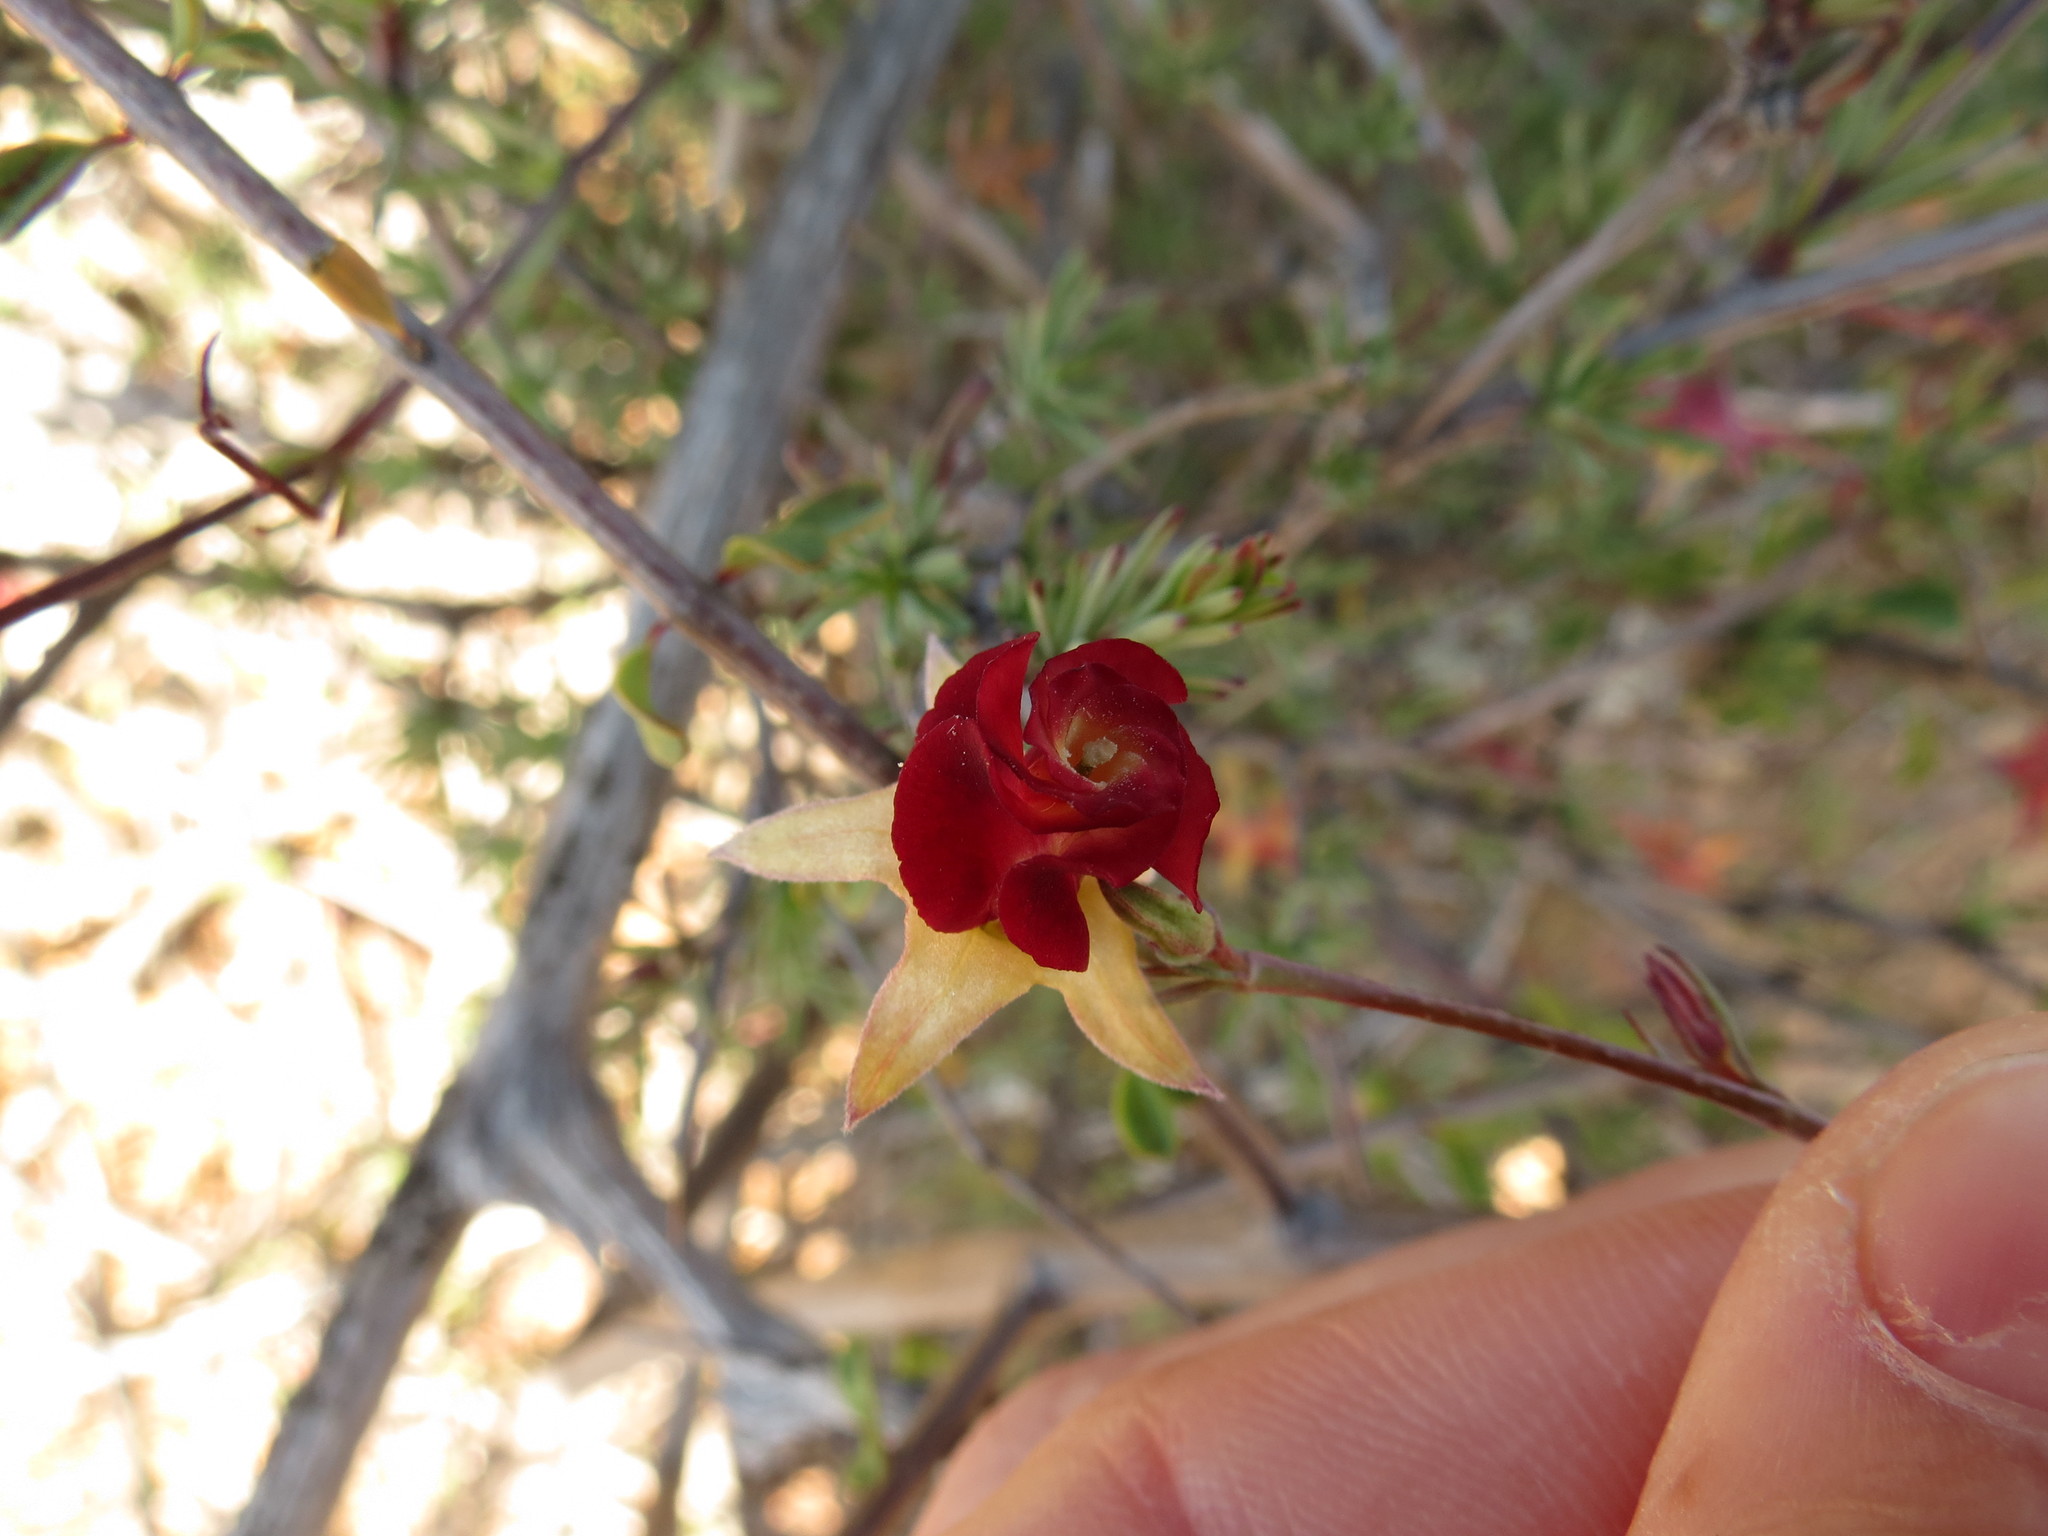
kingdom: Plantae
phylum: Tracheophyta
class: Magnoliopsida
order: Malvales
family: Malvaceae
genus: Hermannia
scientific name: Hermannia filifolia
